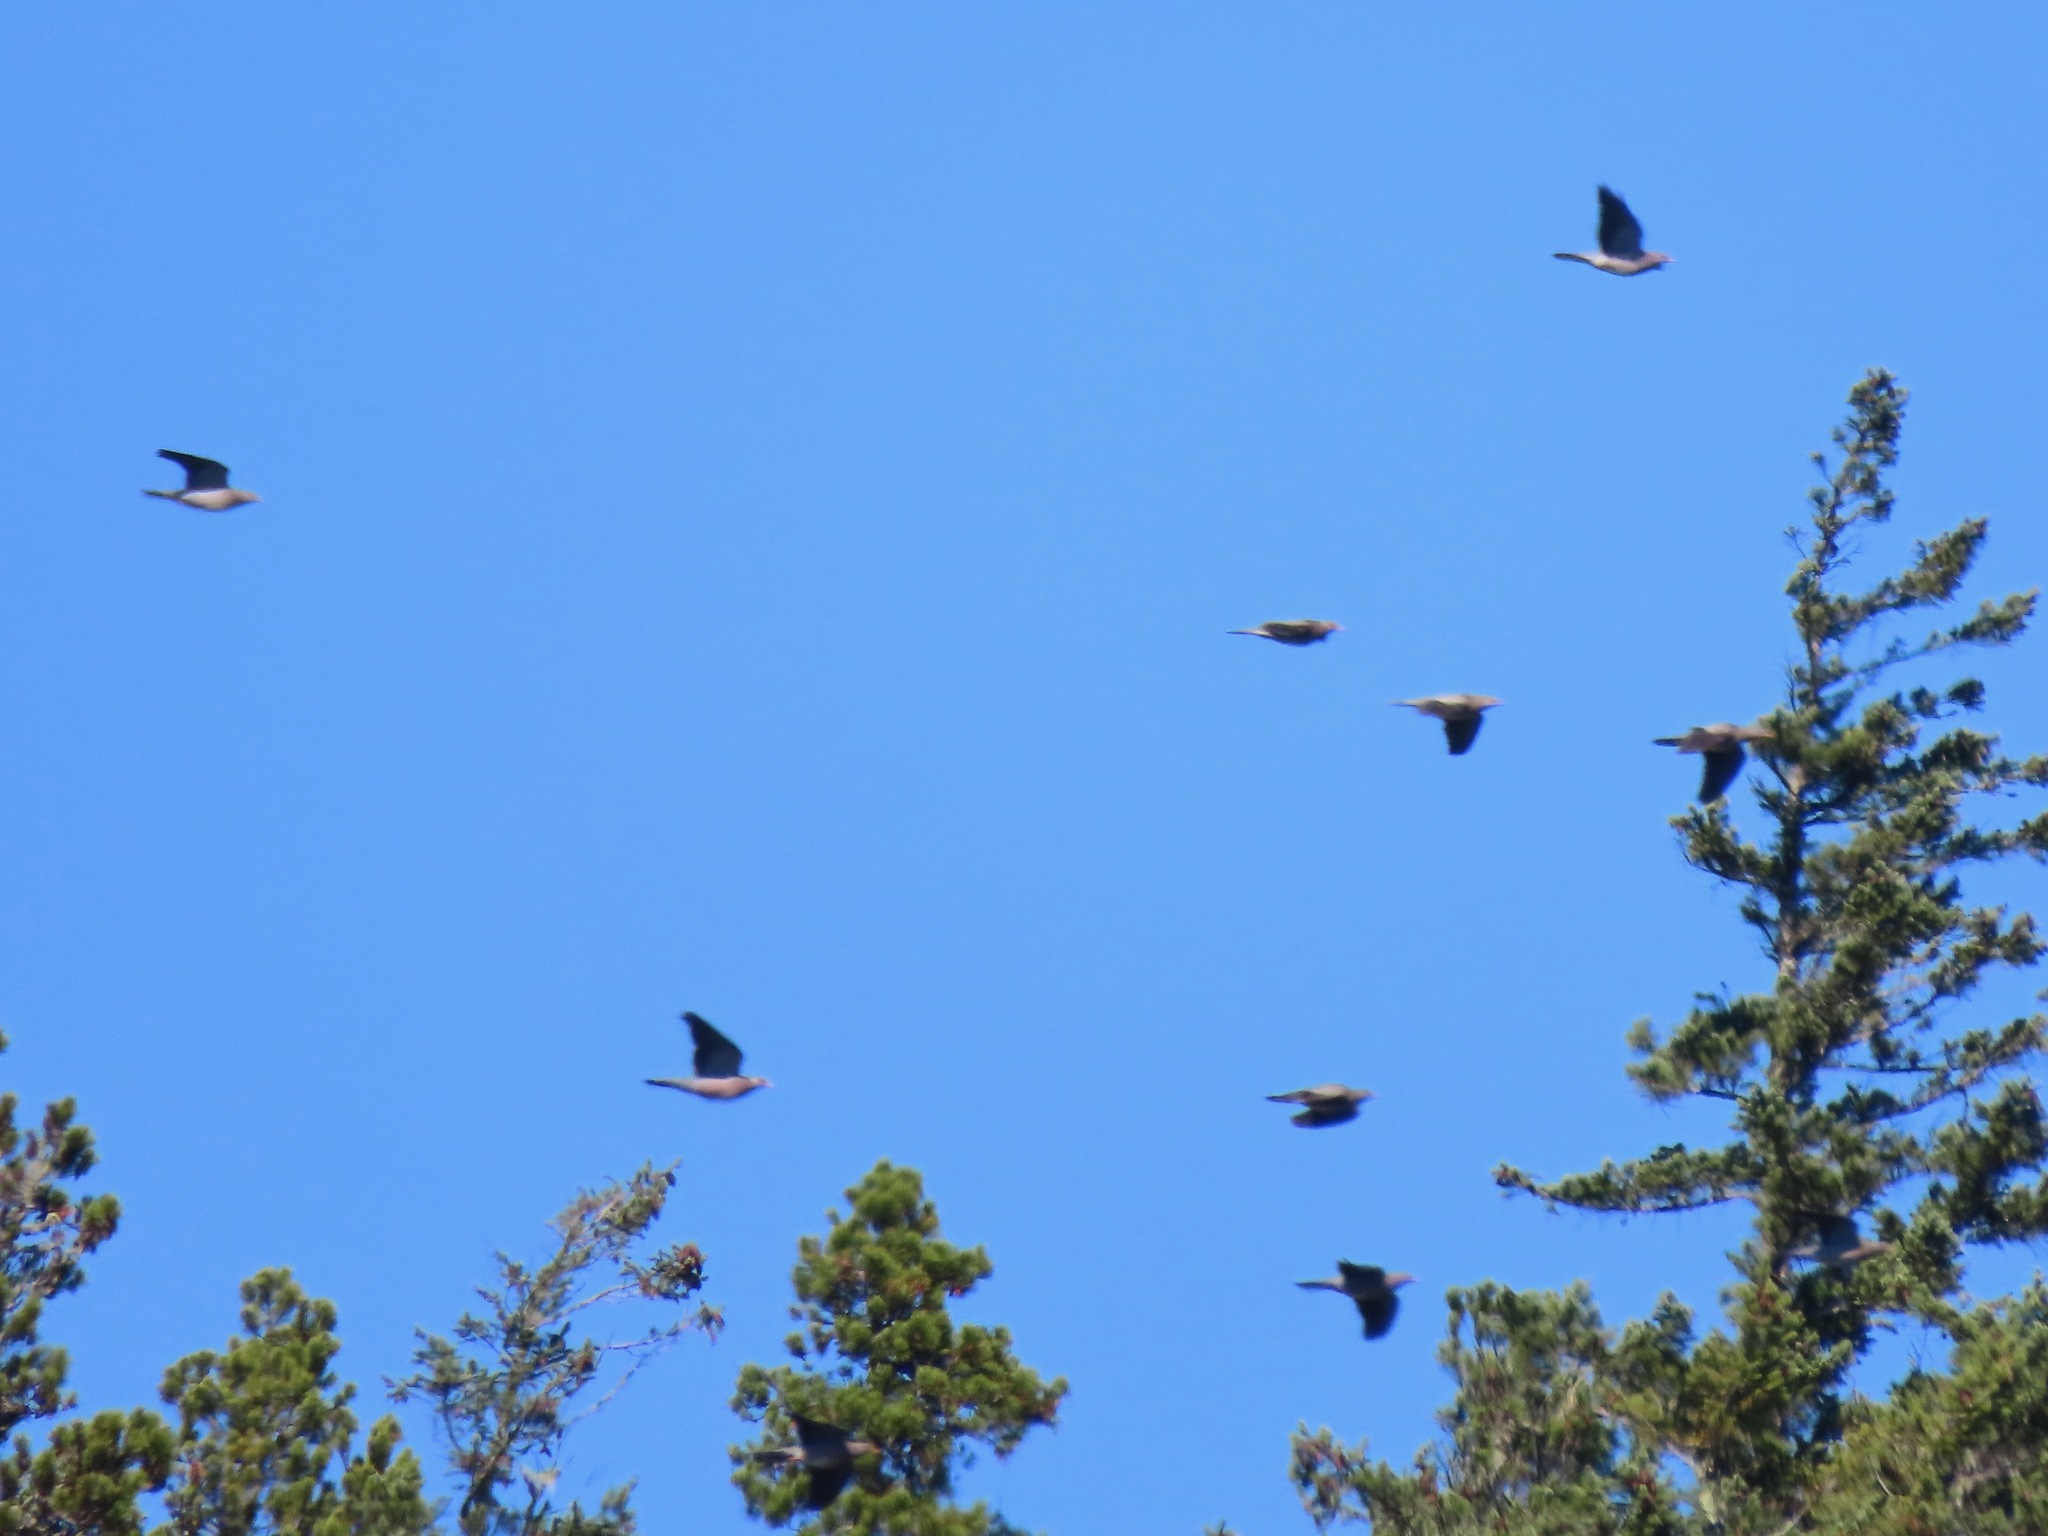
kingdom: Animalia
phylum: Chordata
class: Aves
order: Columbiformes
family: Columbidae
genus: Patagioenas
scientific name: Patagioenas fasciata
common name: Band-tailed pigeon
